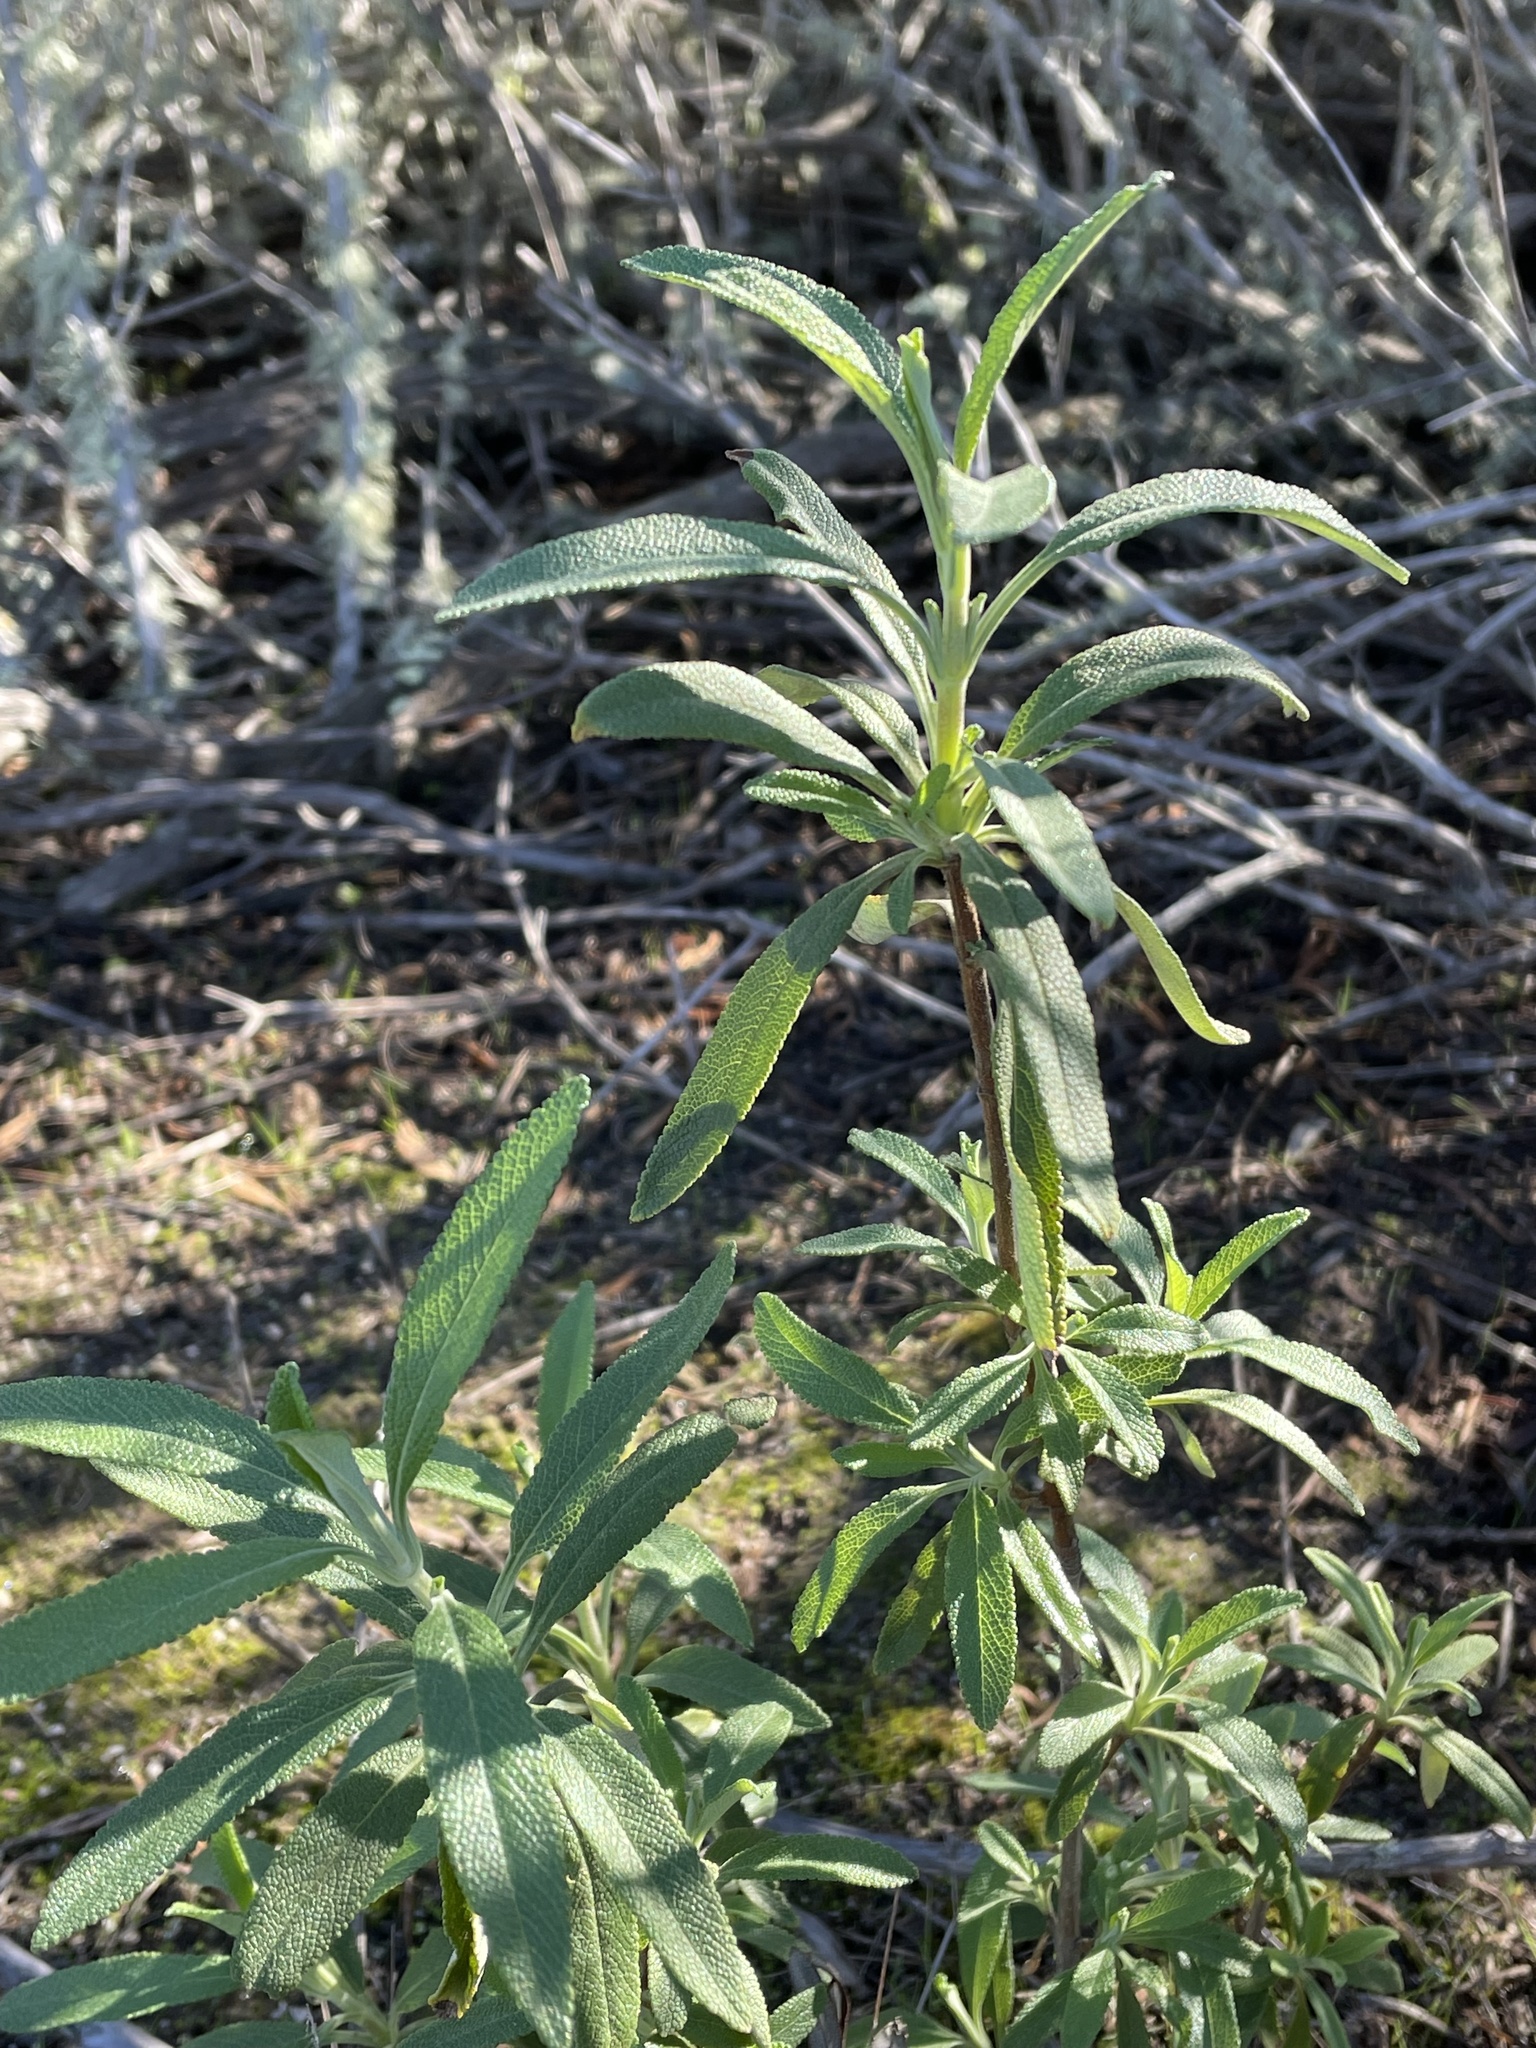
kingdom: Plantae
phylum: Tracheophyta
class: Magnoliopsida
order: Lamiales
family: Lamiaceae
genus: Salvia
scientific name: Salvia mellifera
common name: Black sage
